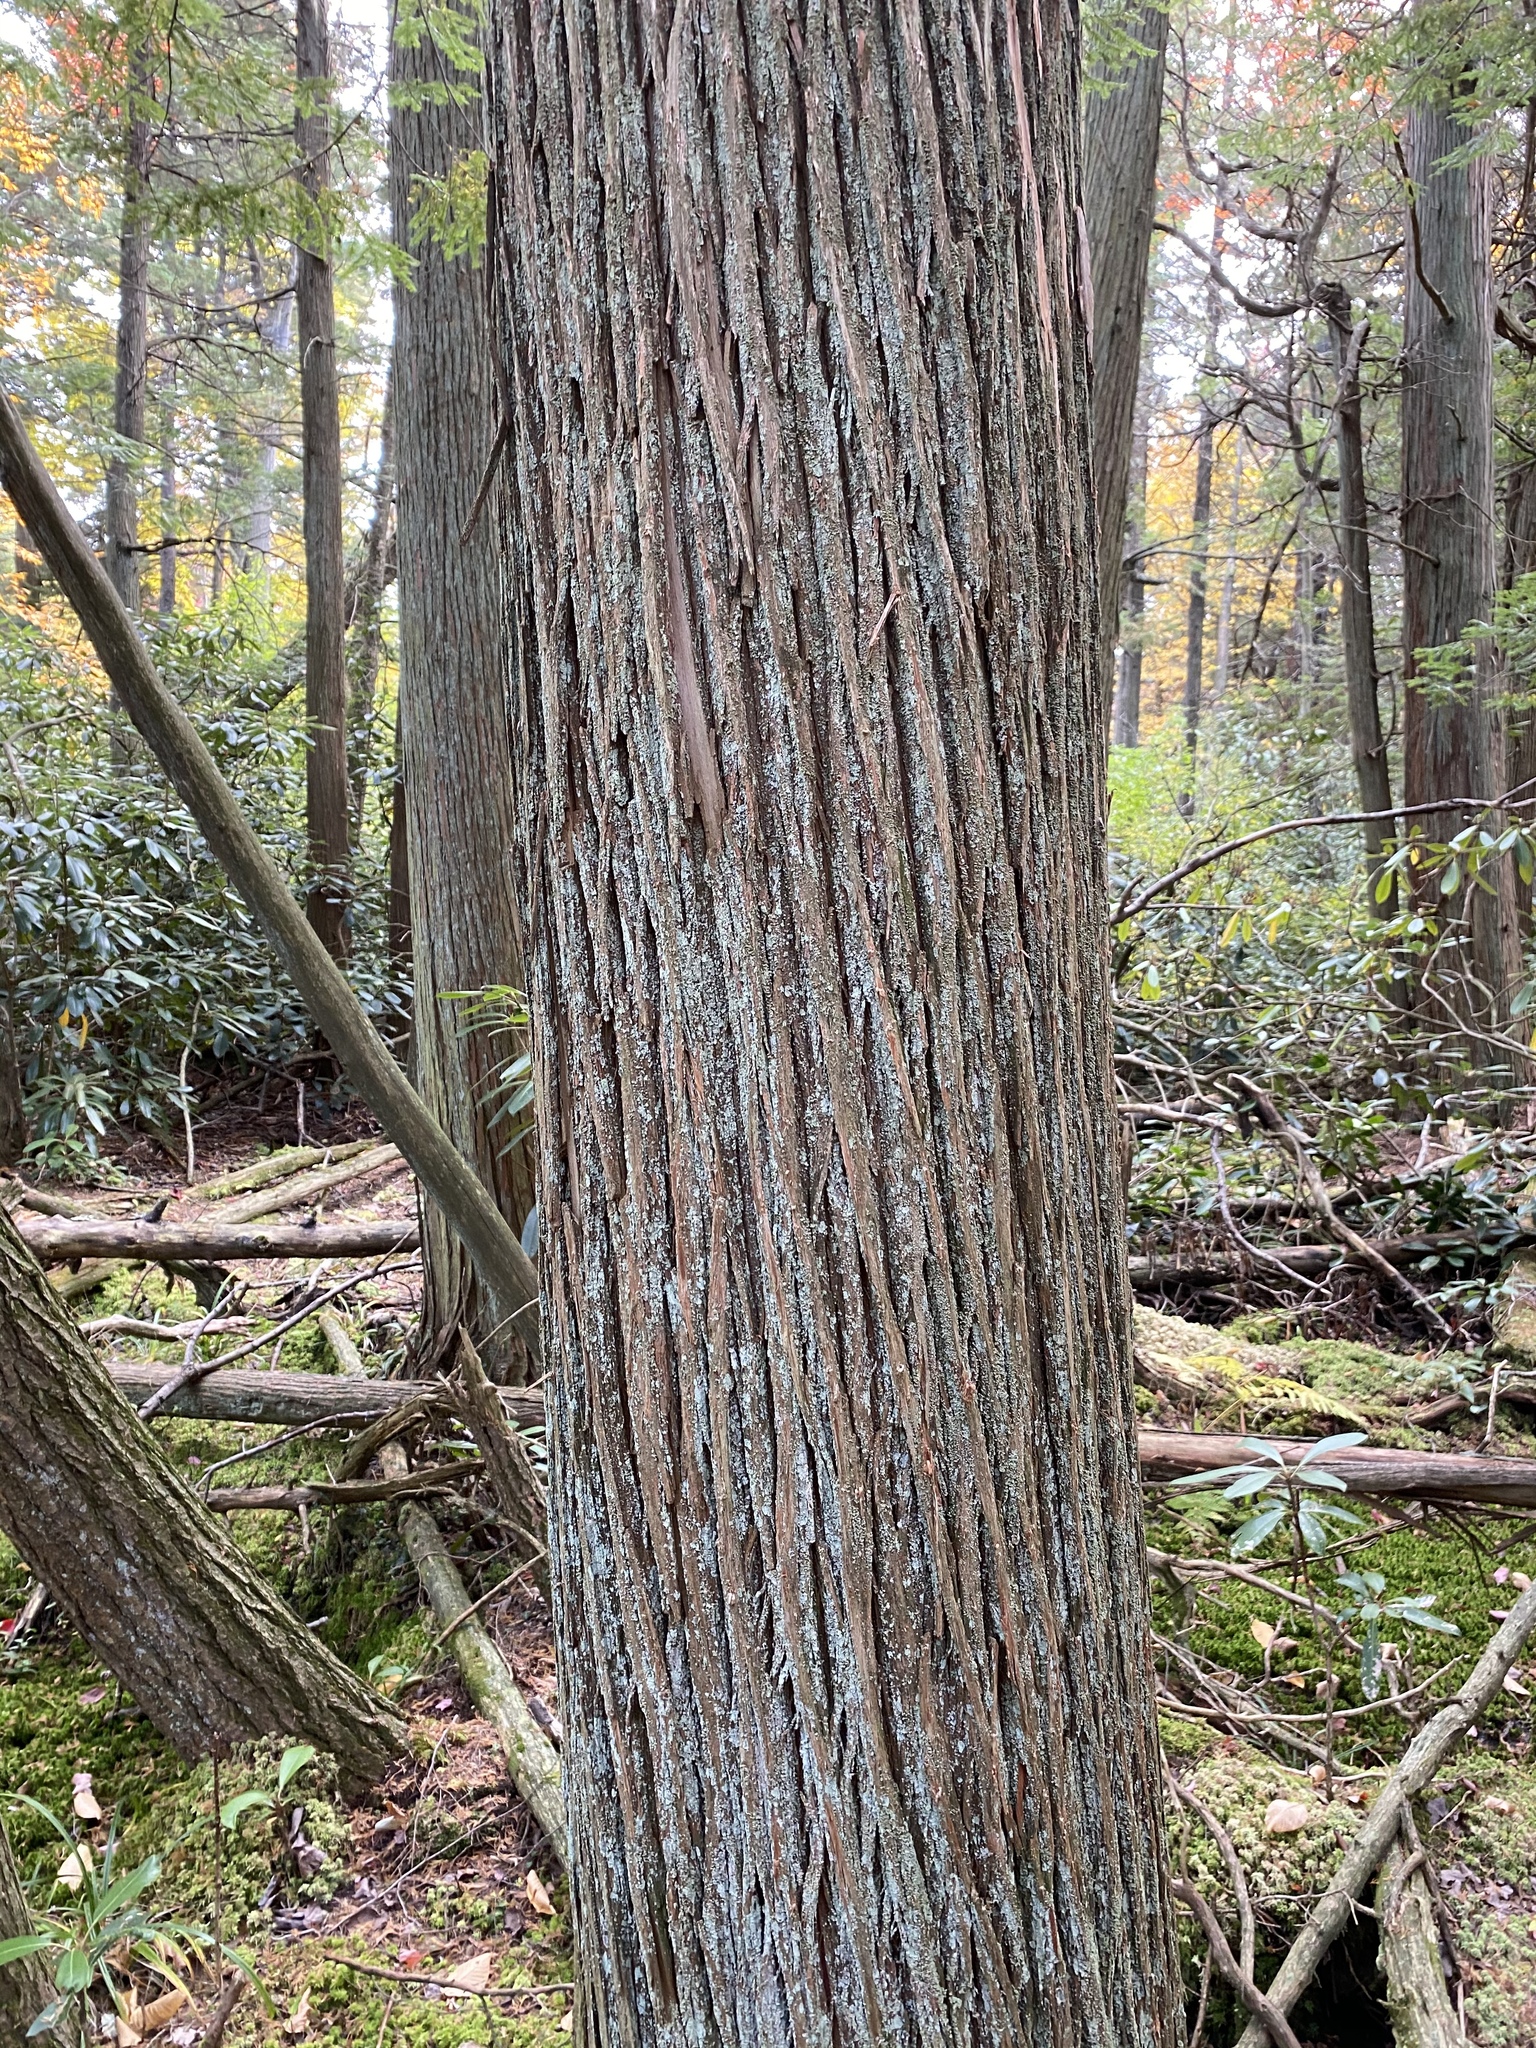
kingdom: Plantae
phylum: Tracheophyta
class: Pinopsida
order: Pinales
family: Cupressaceae
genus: Chamaecyparis
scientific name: Chamaecyparis thyoides
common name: Atlantic white cedar
